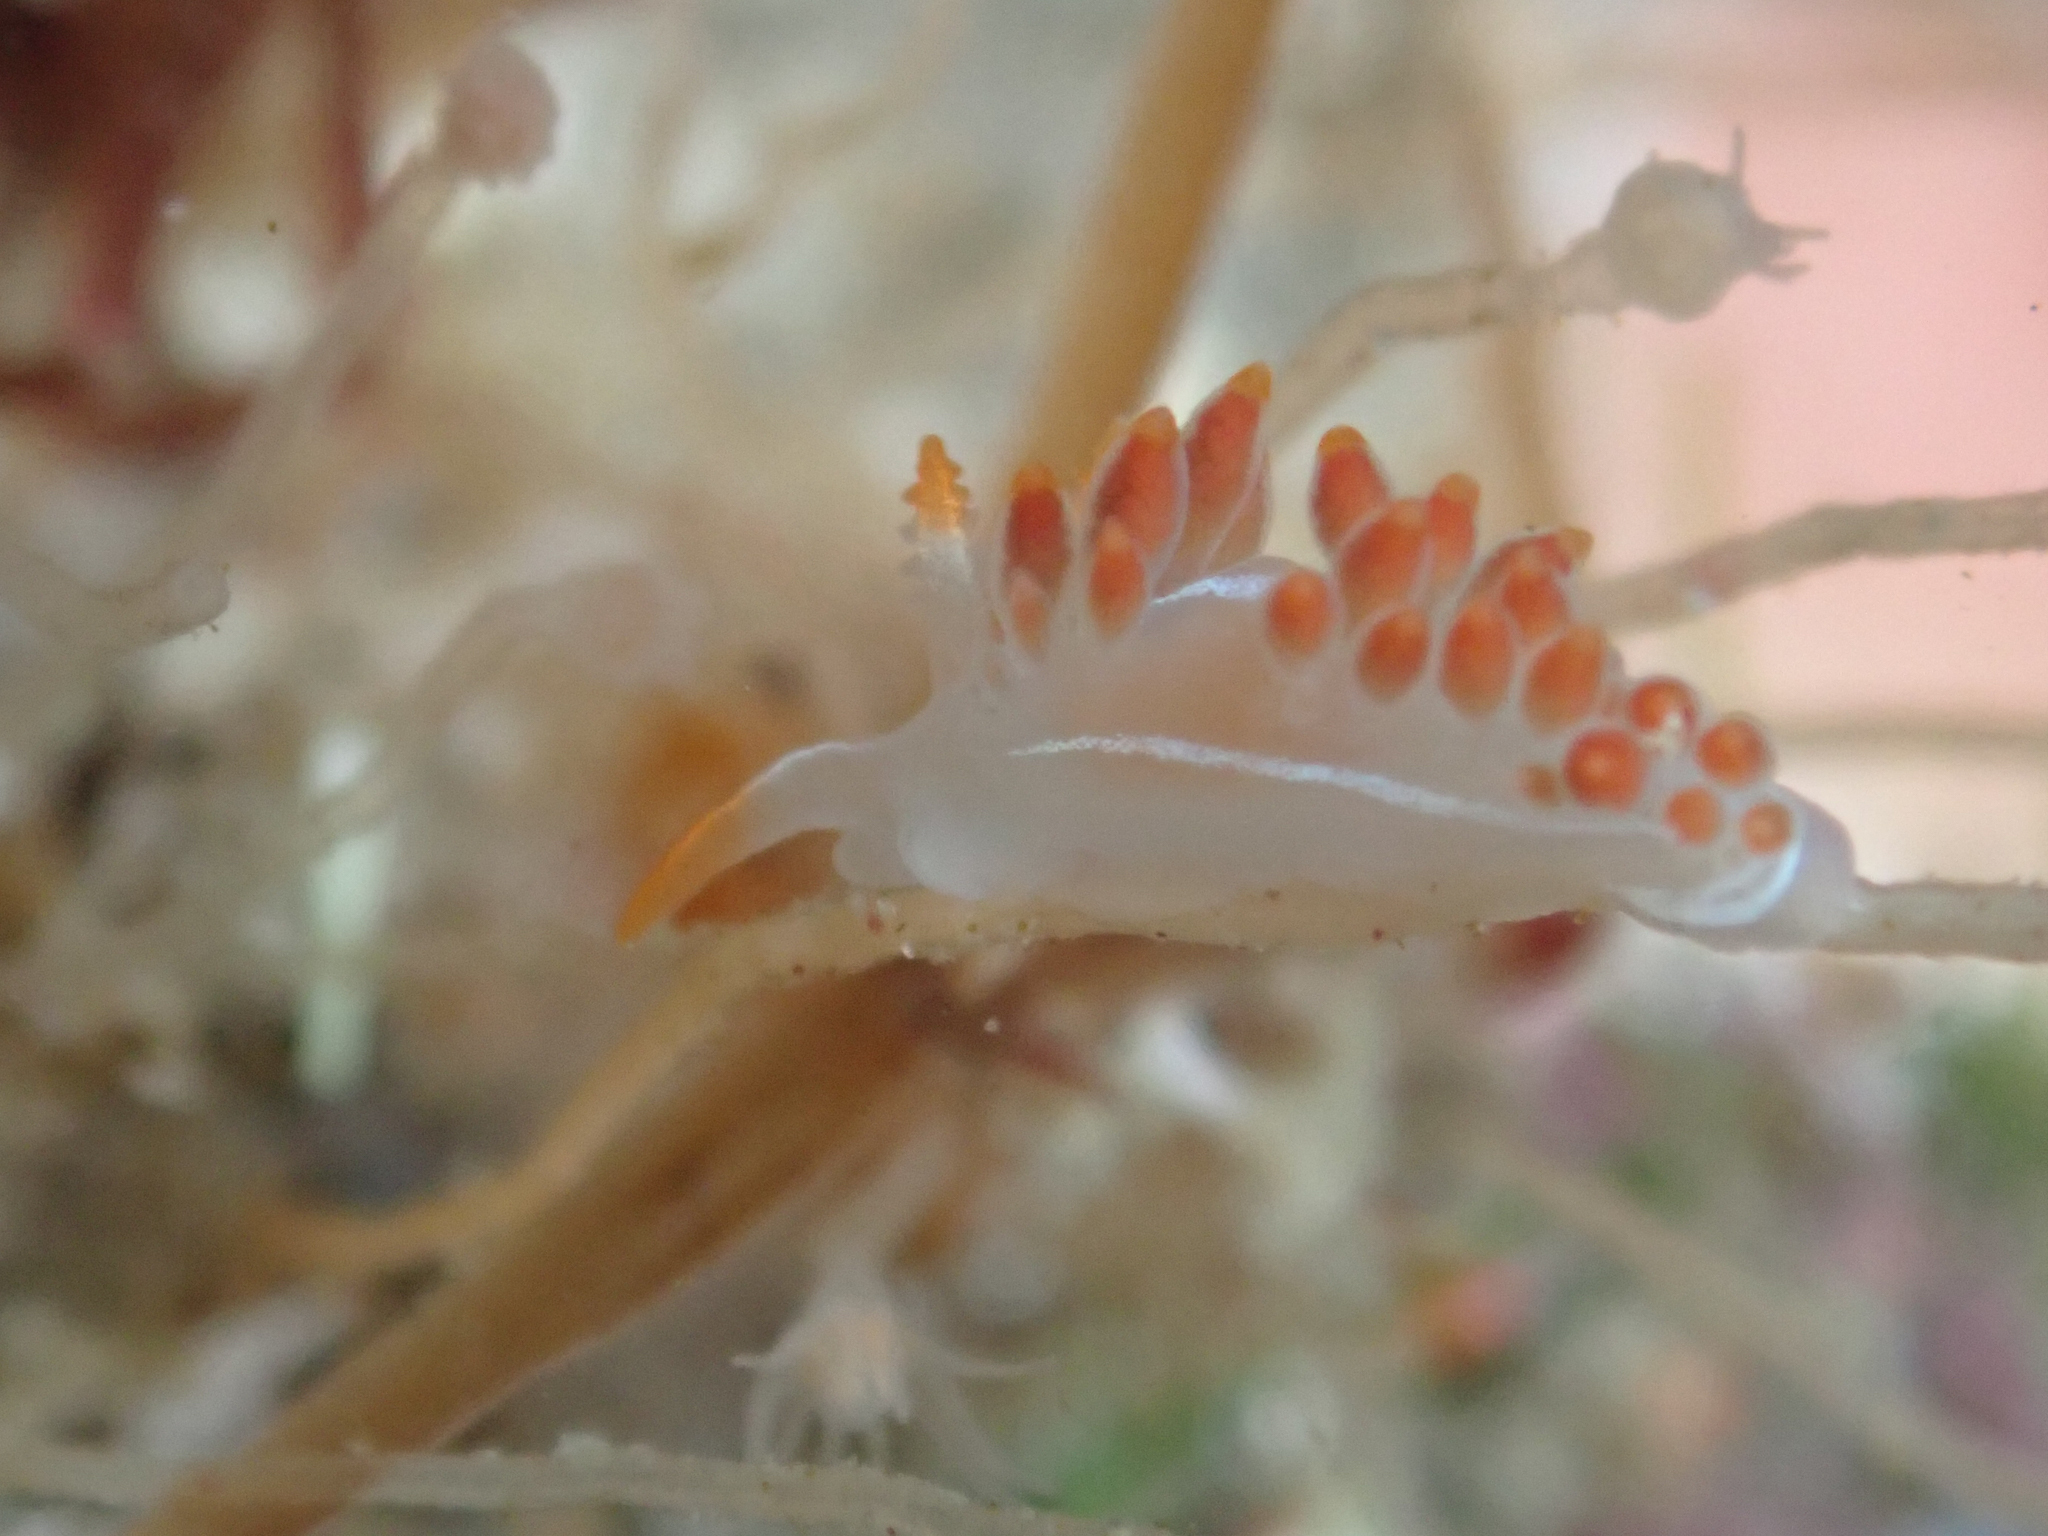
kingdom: Animalia
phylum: Mollusca
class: Gastropoda
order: Nudibranchia
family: Coryphellidae
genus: Coryphella
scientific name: Coryphella trilineata
